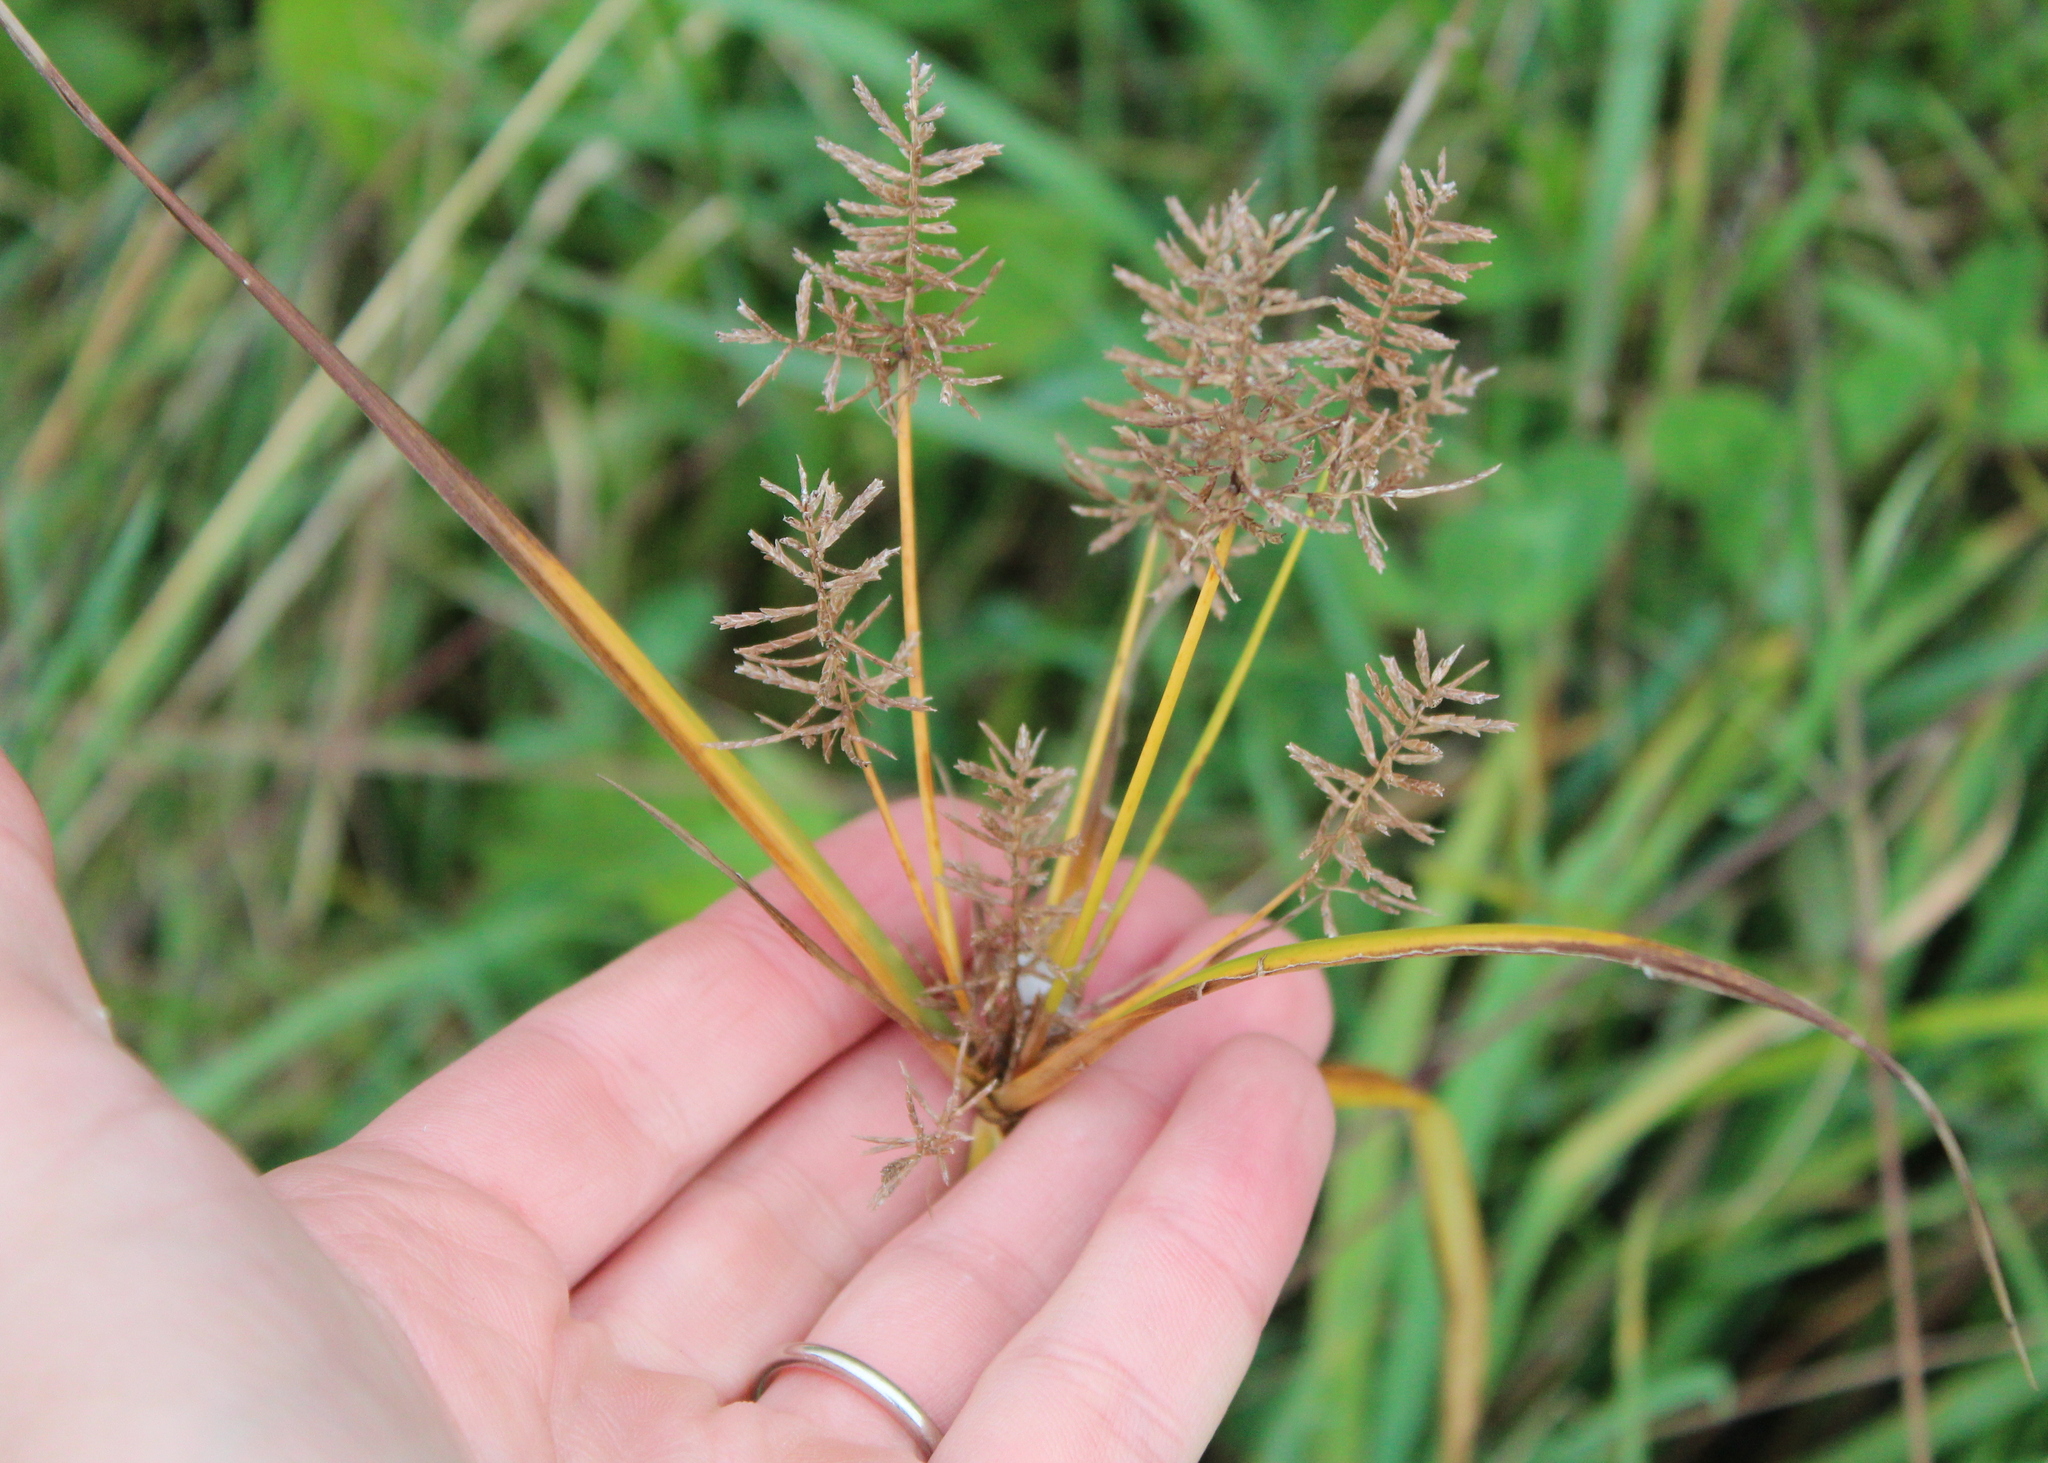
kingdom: Plantae
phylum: Tracheophyta
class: Liliopsida
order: Poales
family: Cyperaceae
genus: Cyperus
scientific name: Cyperus esculentus
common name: Yellow nutsedge
